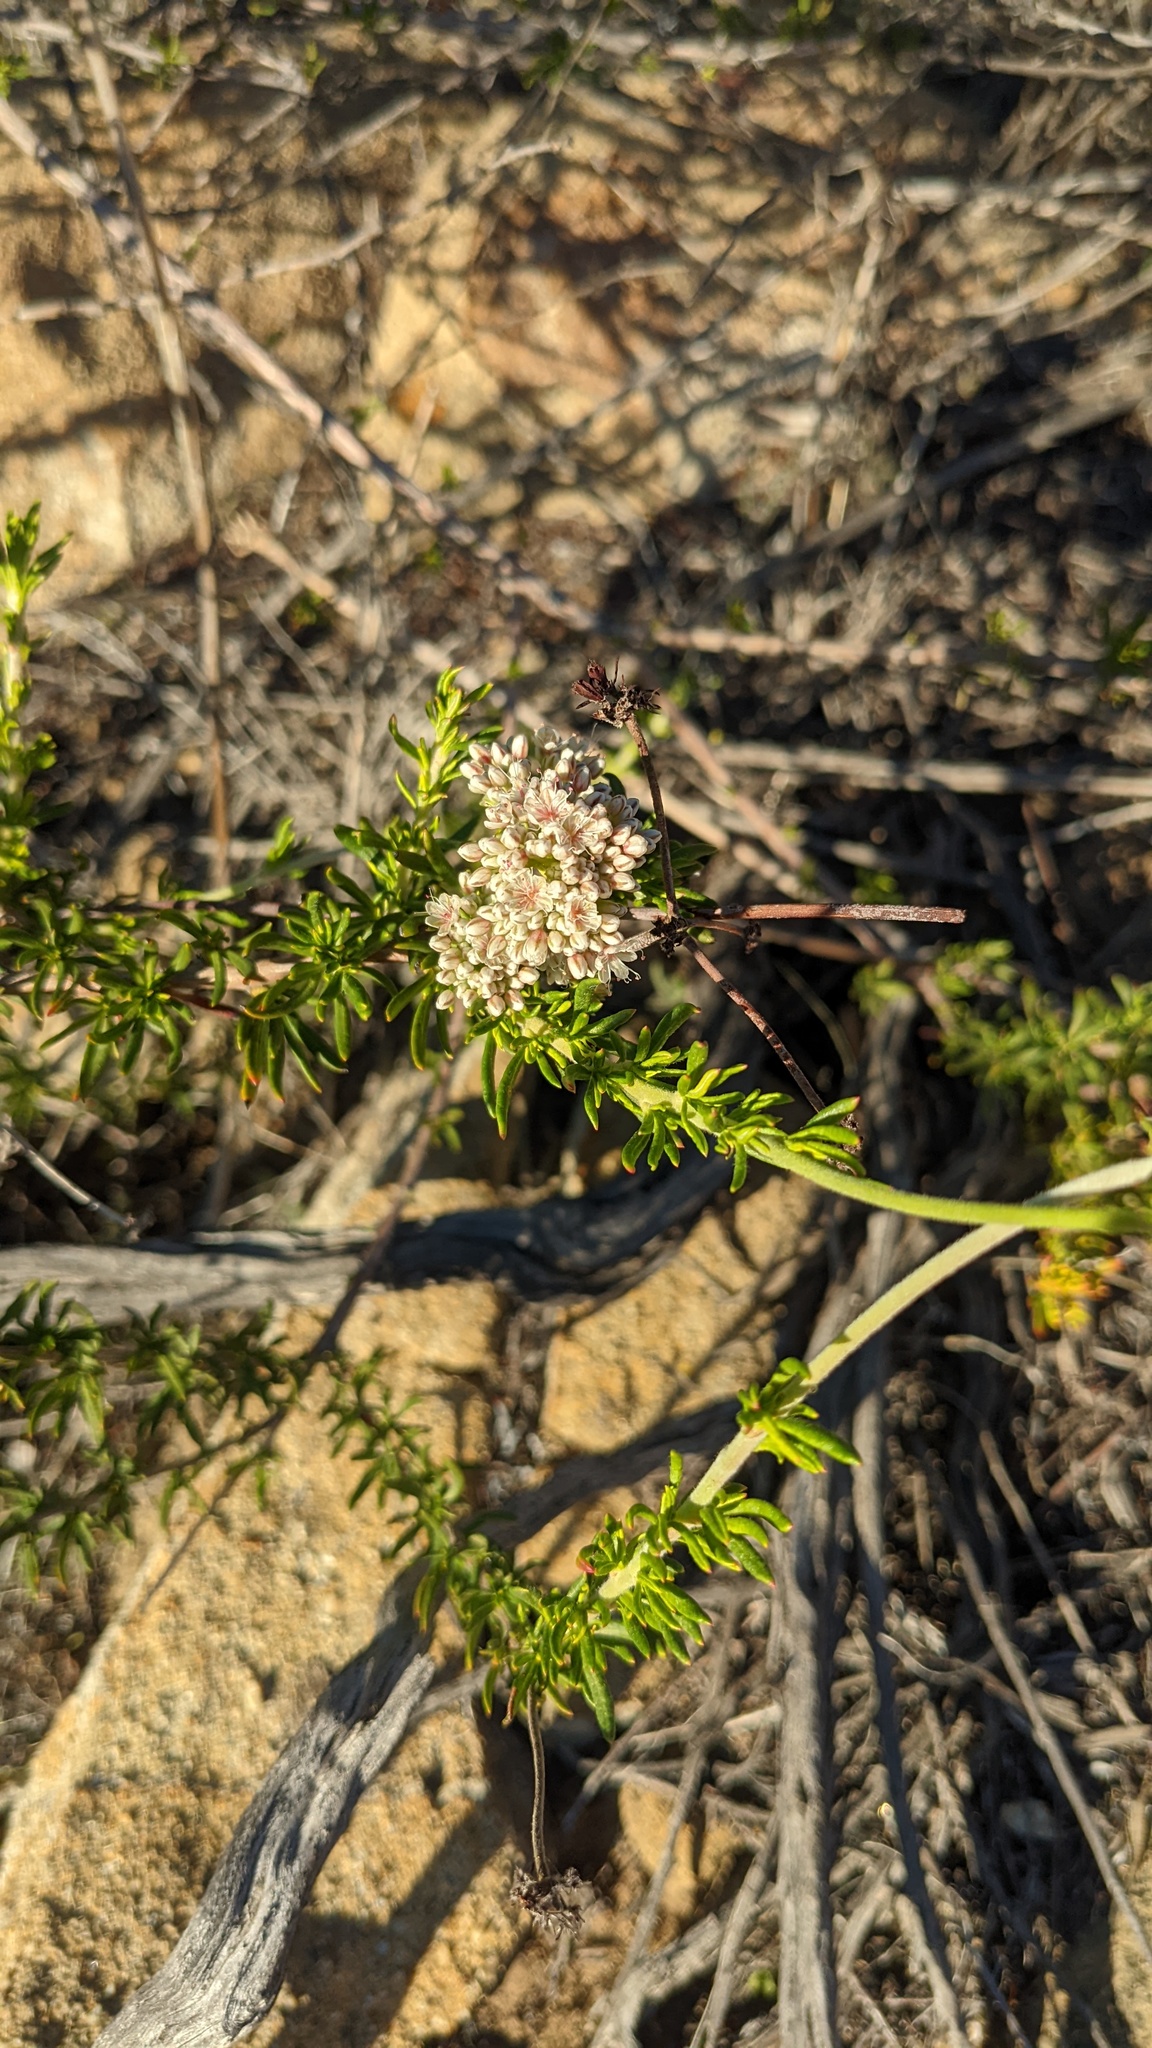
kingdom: Plantae
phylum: Tracheophyta
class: Magnoliopsida
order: Caryophyllales
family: Polygonaceae
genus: Eriogonum
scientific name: Eriogonum fasciculatum
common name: California wild buckwheat
